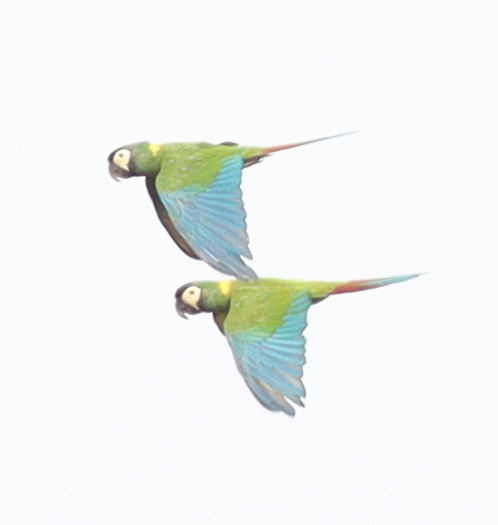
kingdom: Animalia
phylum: Chordata
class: Aves
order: Psittaciformes
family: Psittacidae
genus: Primolius
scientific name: Primolius auricollis
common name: Golden-collared macaw
